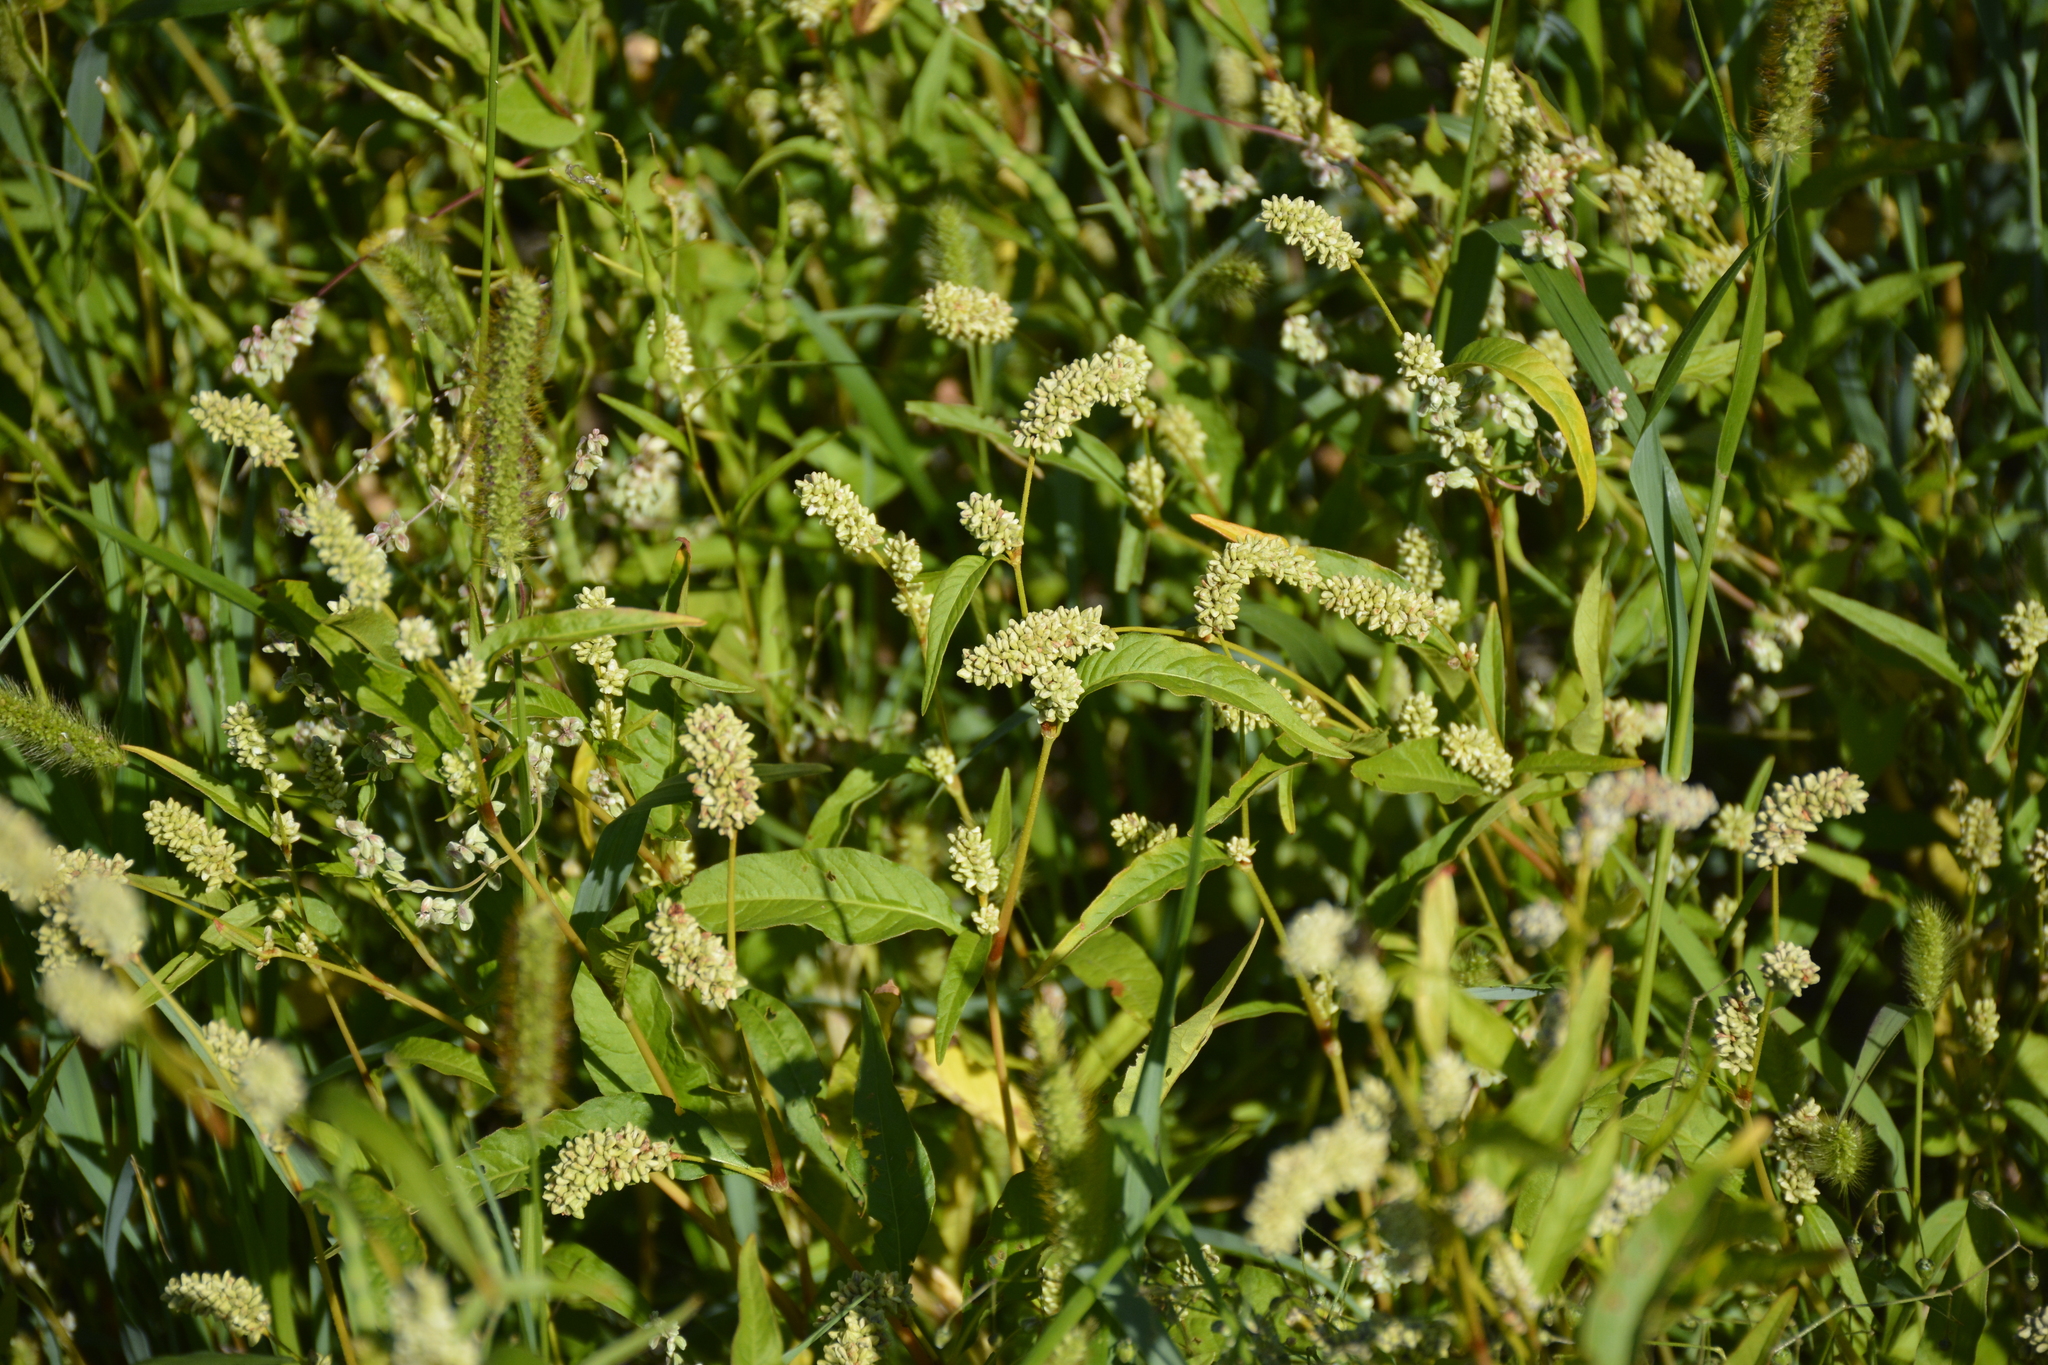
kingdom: Plantae
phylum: Tracheophyta
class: Magnoliopsida
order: Caryophyllales
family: Polygonaceae
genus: Persicaria
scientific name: Persicaria lapathifolia
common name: Curlytop knotweed
